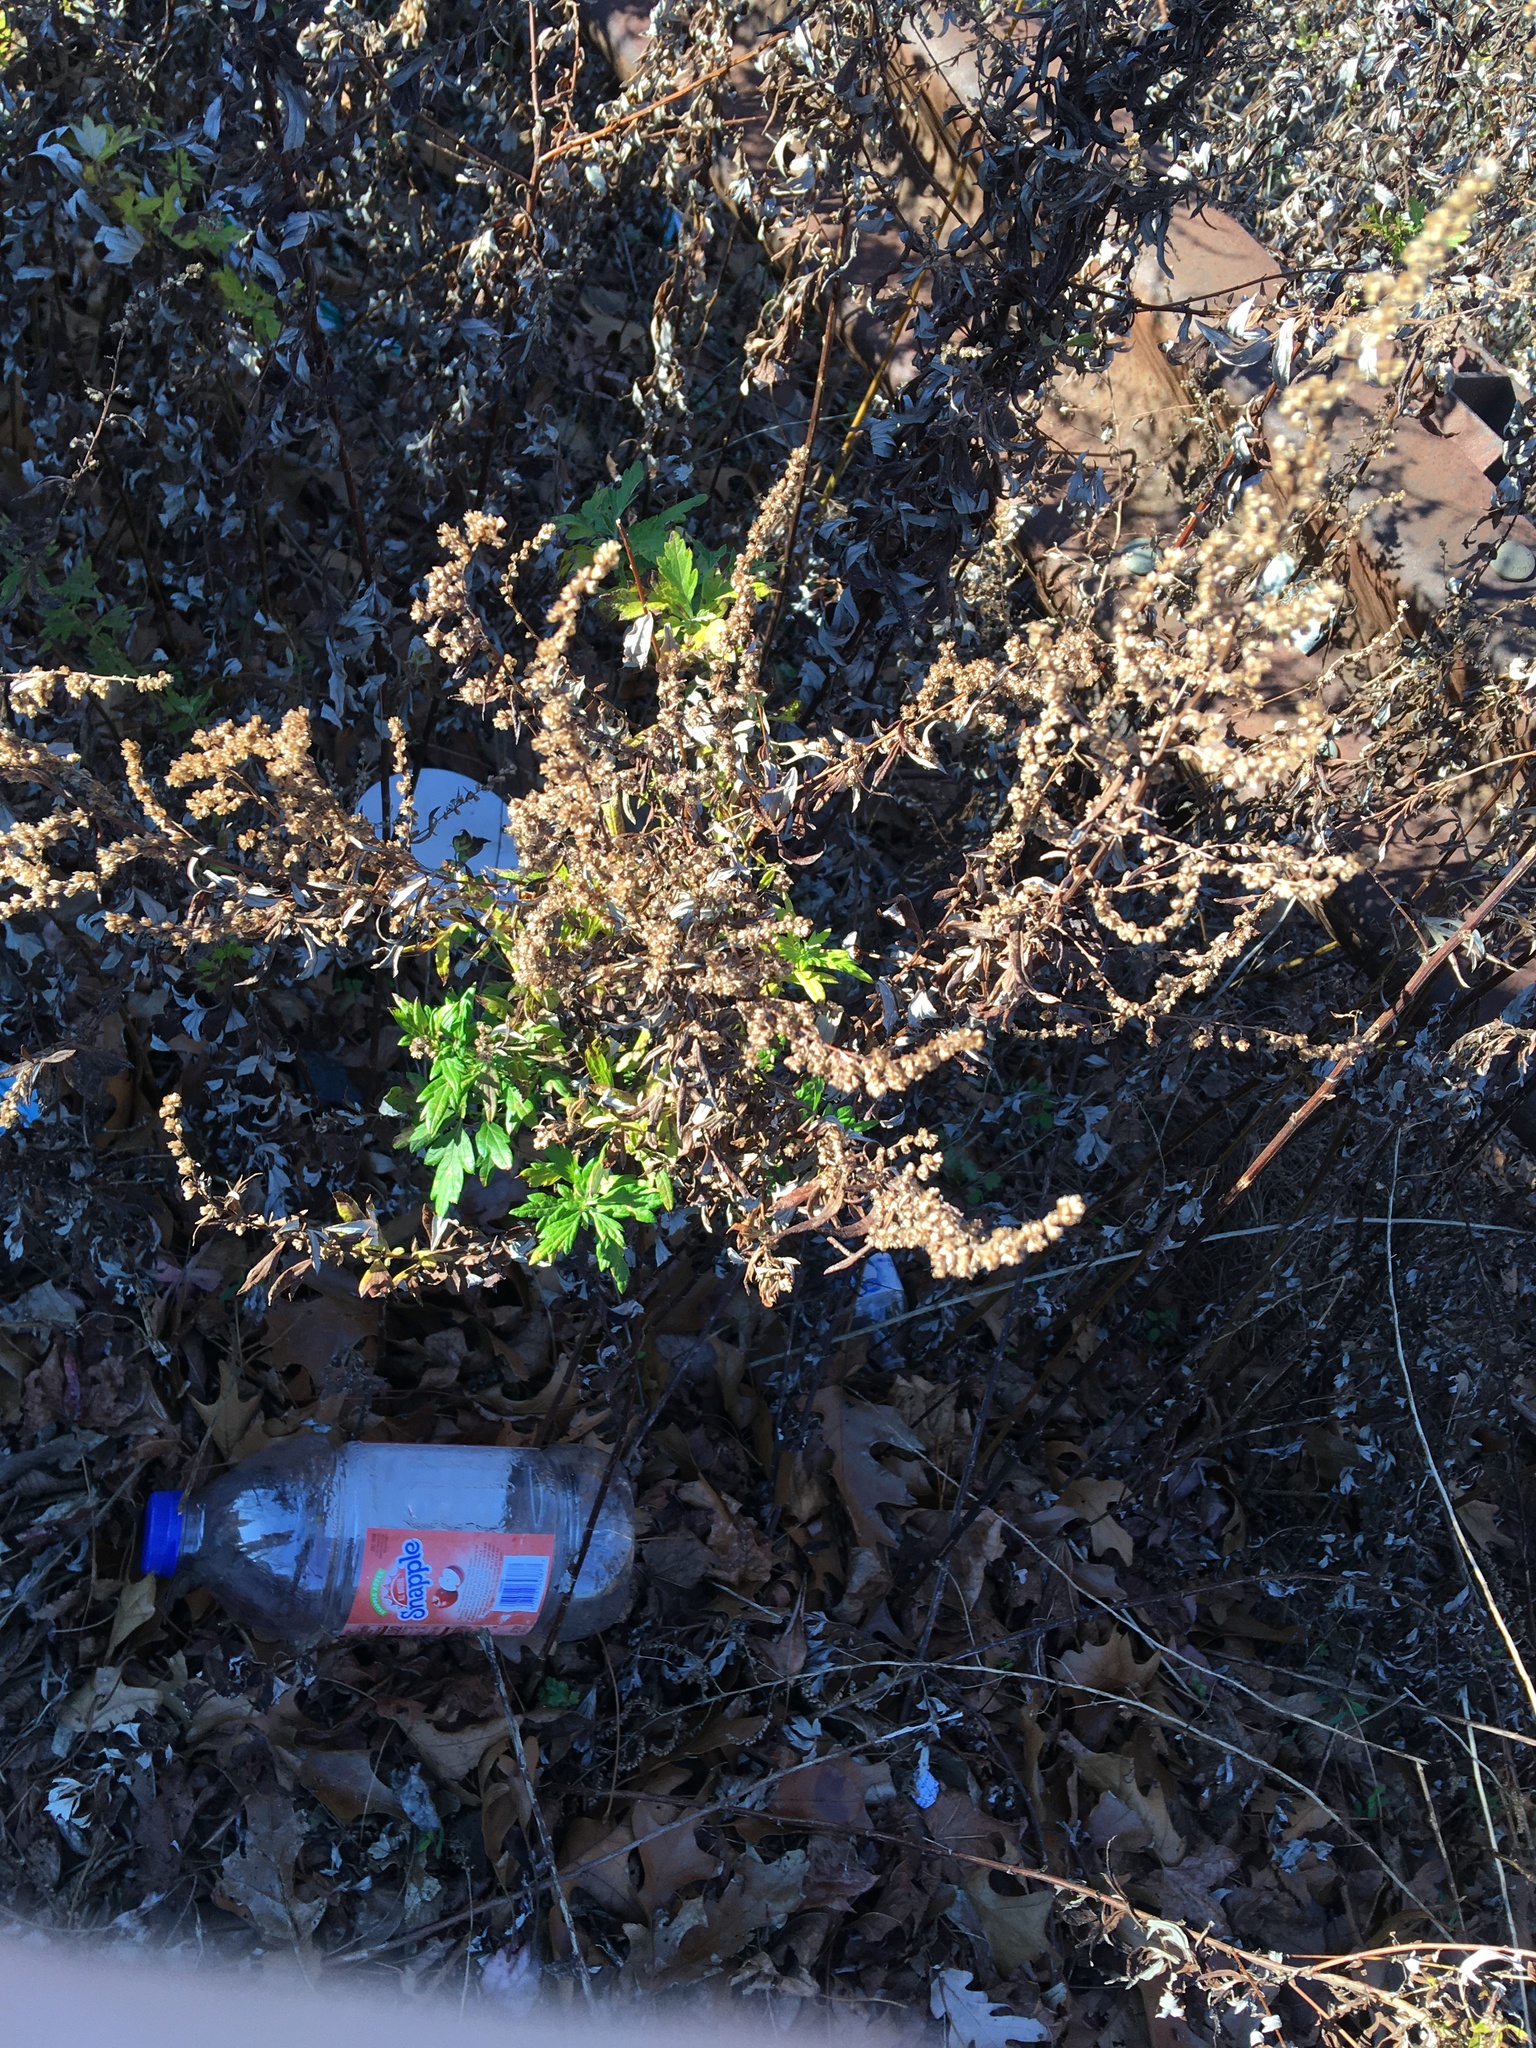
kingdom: Plantae
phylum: Tracheophyta
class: Magnoliopsida
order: Asterales
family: Asteraceae
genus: Artemisia
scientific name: Artemisia vulgaris
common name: Mugwort
